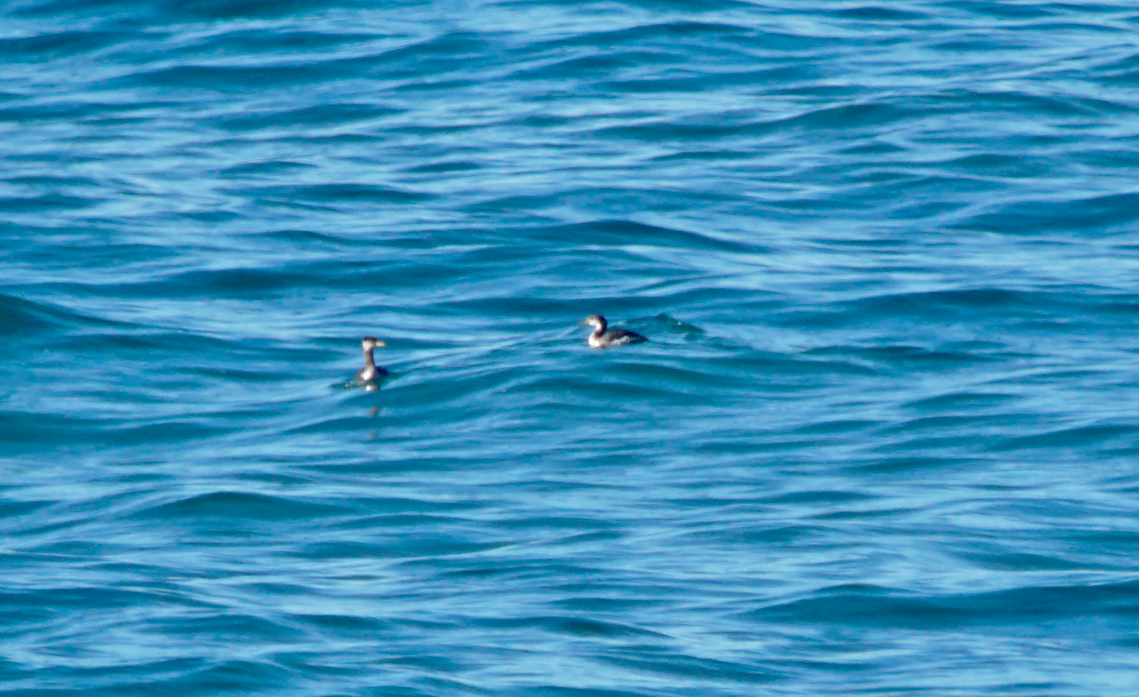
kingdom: Animalia
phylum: Chordata
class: Aves
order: Podicipediformes
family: Podicipedidae
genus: Podiceps
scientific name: Podiceps grisegena
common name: Red-necked grebe
